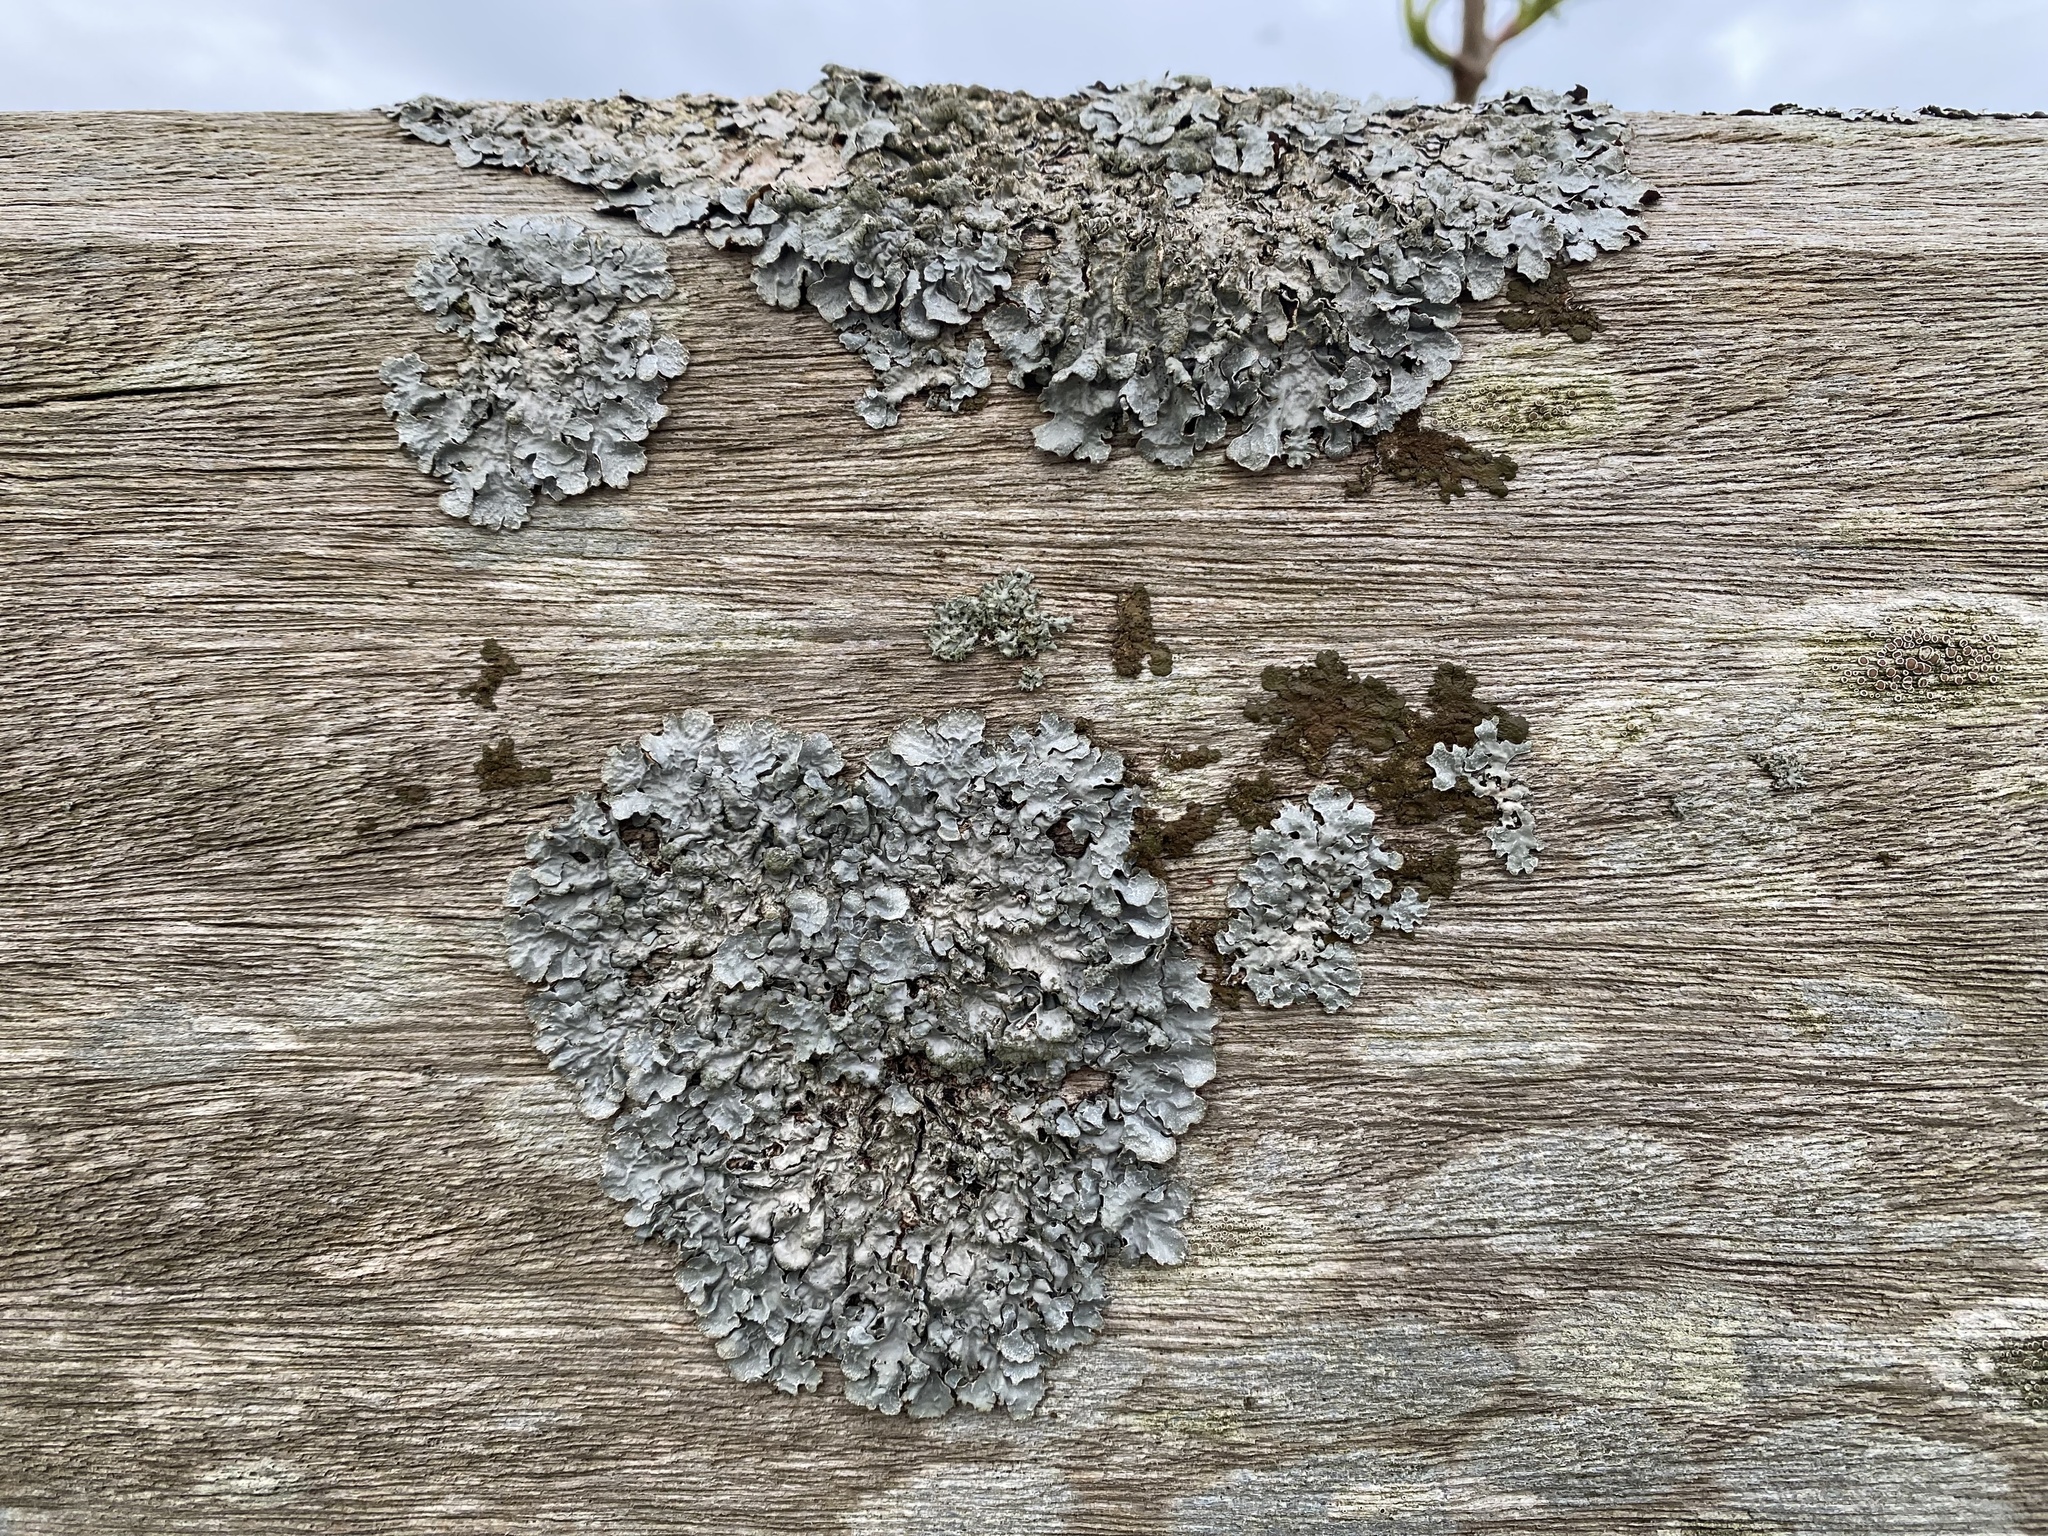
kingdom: Fungi
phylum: Ascomycota
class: Lecanoromycetes
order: Lecanorales
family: Parmeliaceae
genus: Parmelia
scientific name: Parmelia sulcata
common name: Netted shield lichen
